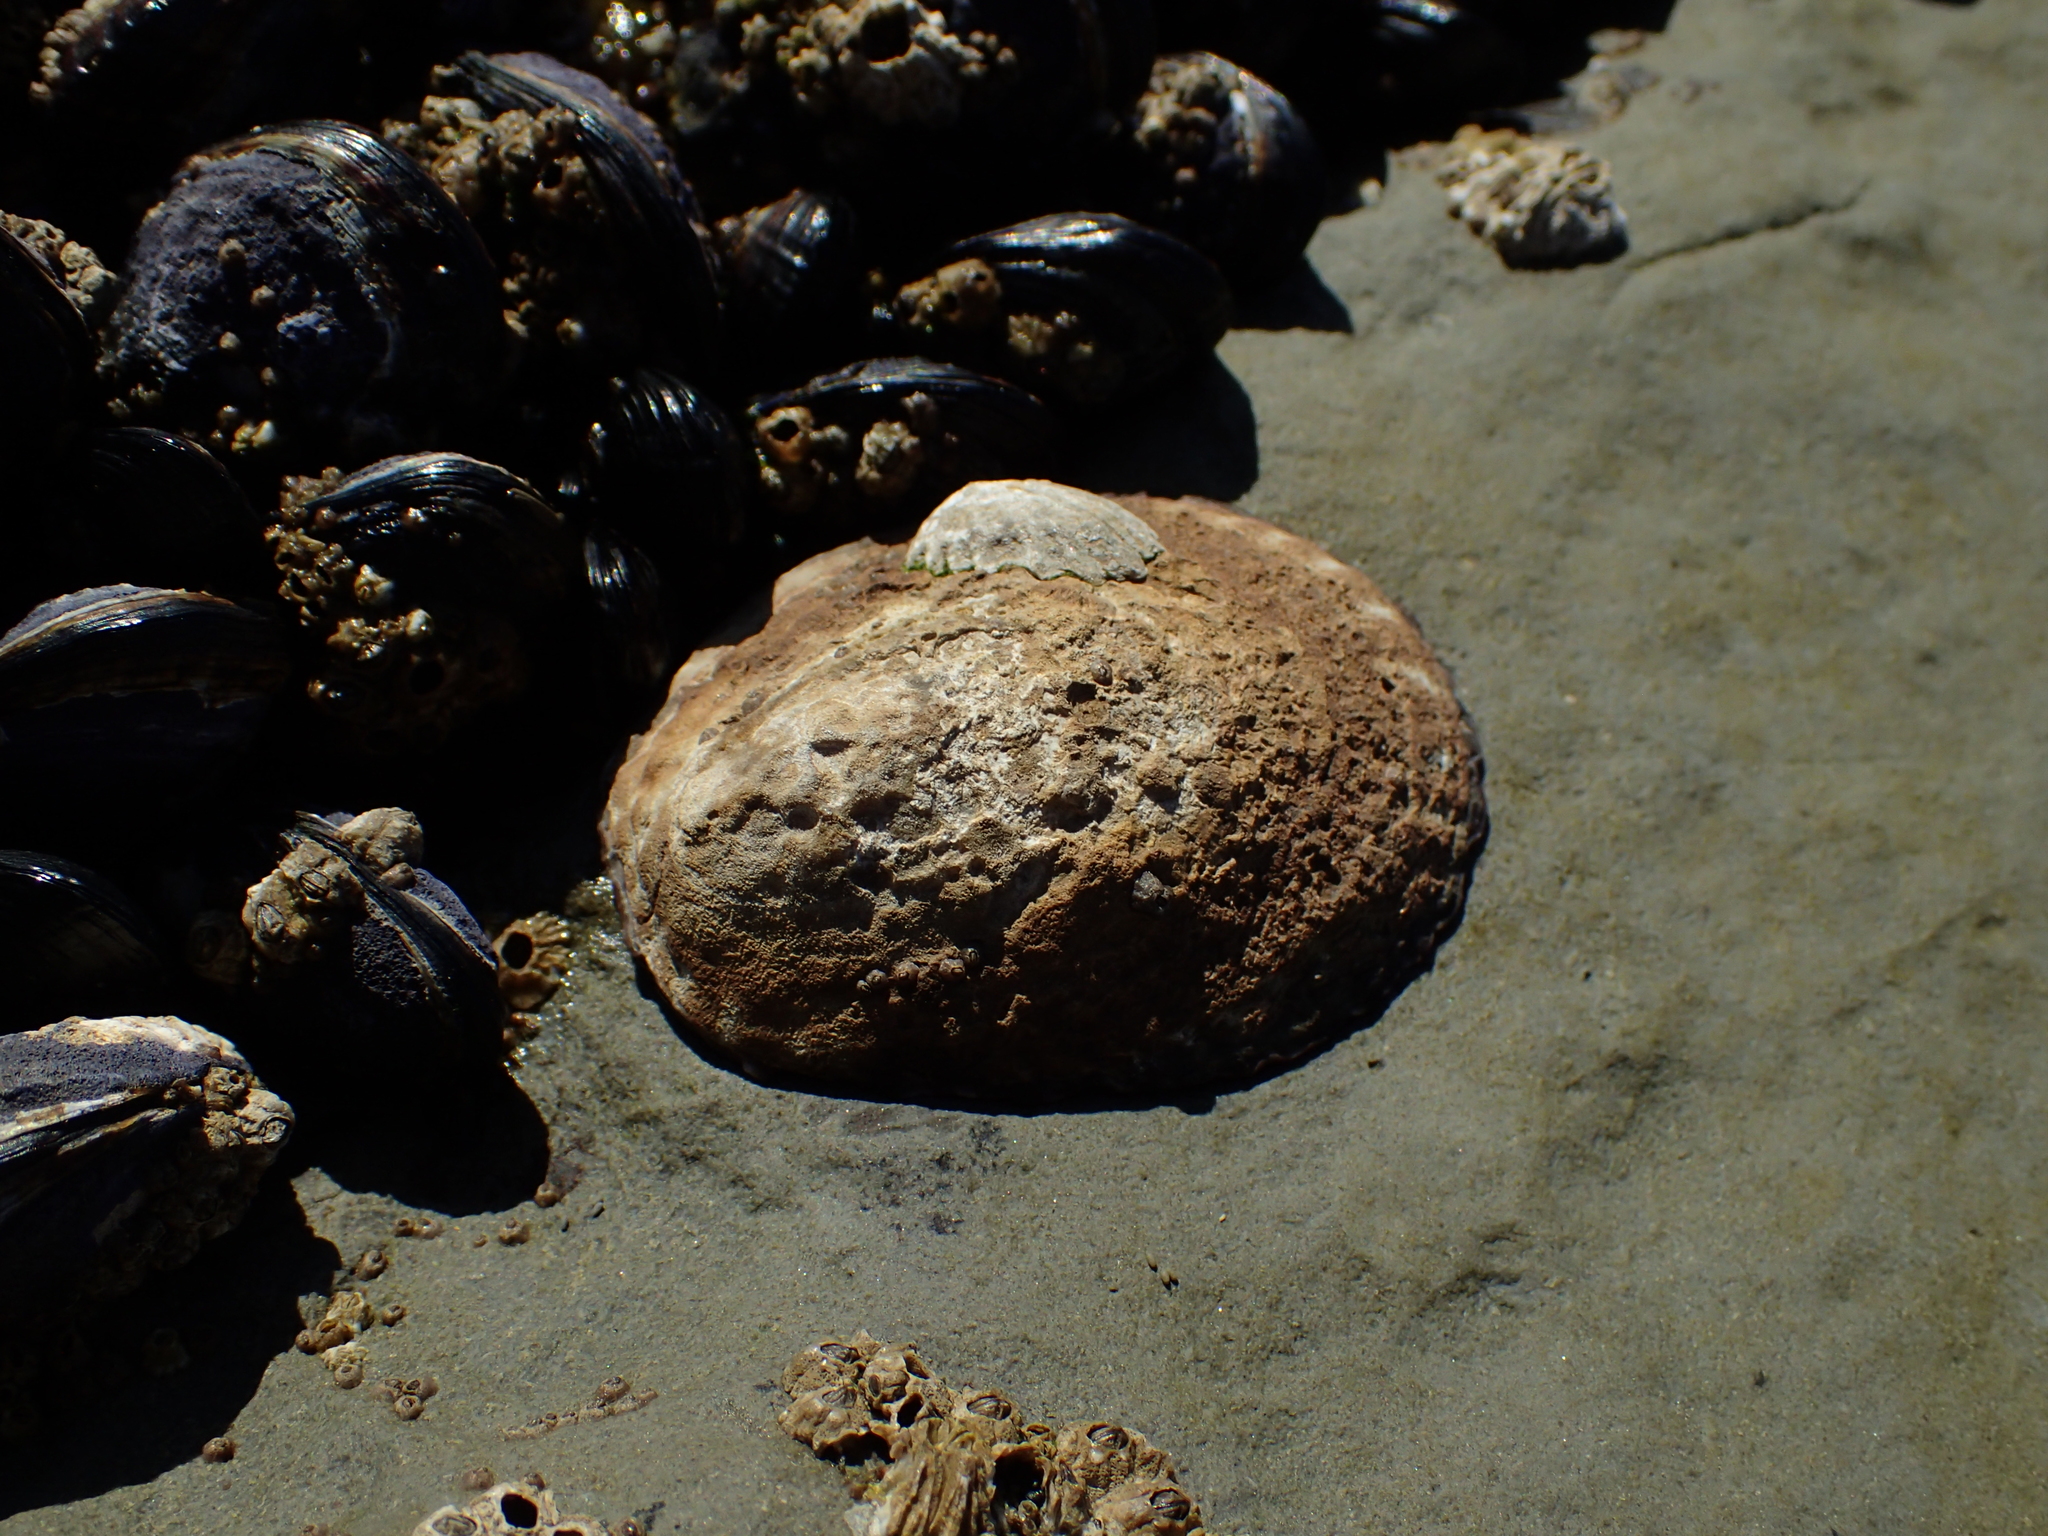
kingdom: Animalia
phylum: Mollusca
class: Gastropoda
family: Lottiidae
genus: Lottia
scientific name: Lottia gigantea
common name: Owl limpet
